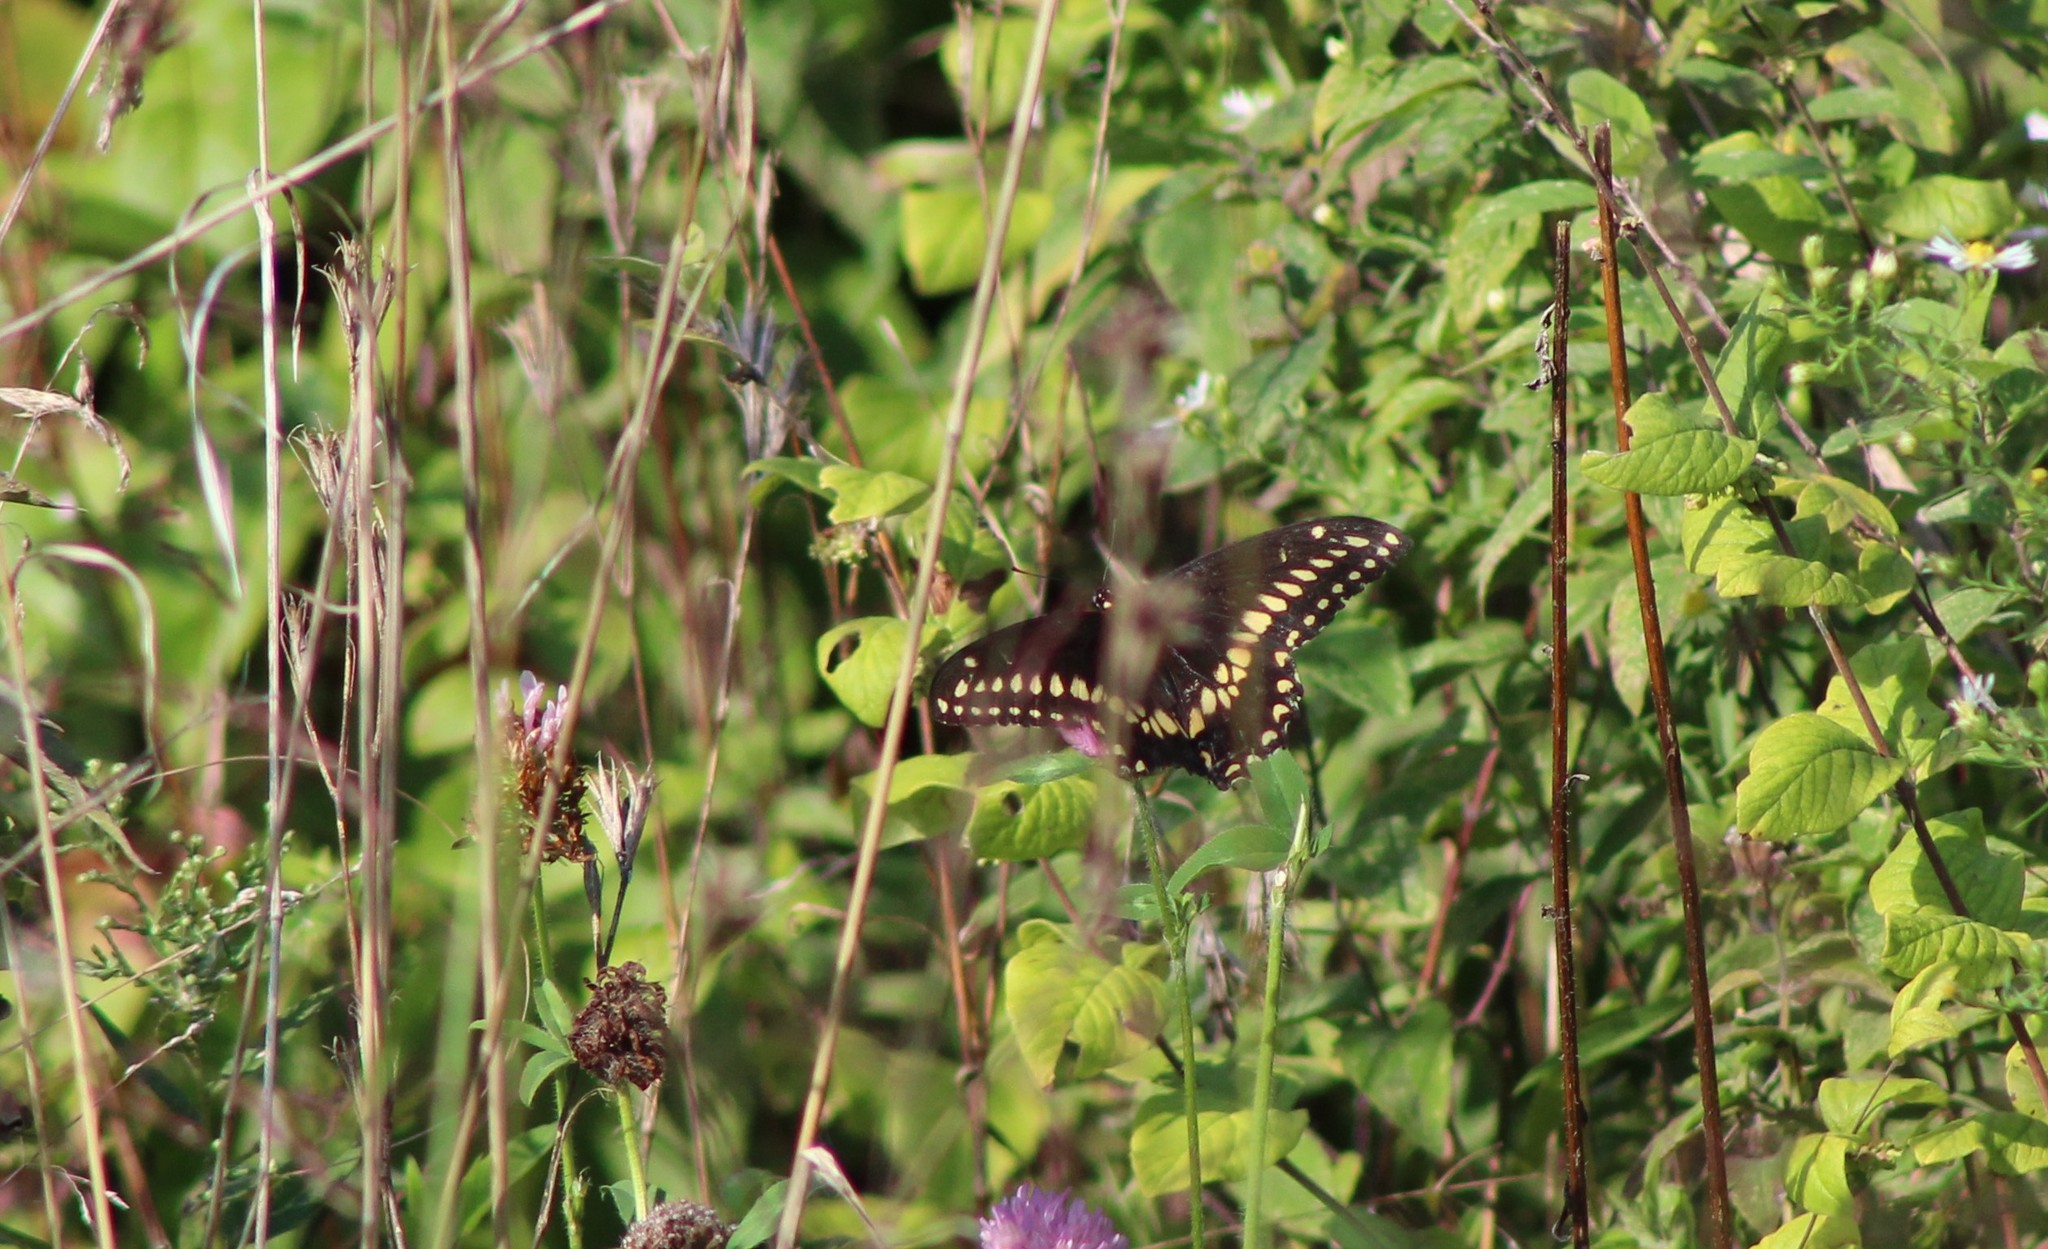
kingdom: Animalia
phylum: Arthropoda
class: Insecta
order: Lepidoptera
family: Papilionidae
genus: Papilio
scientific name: Papilio polyxenes
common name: Black swallowtail
